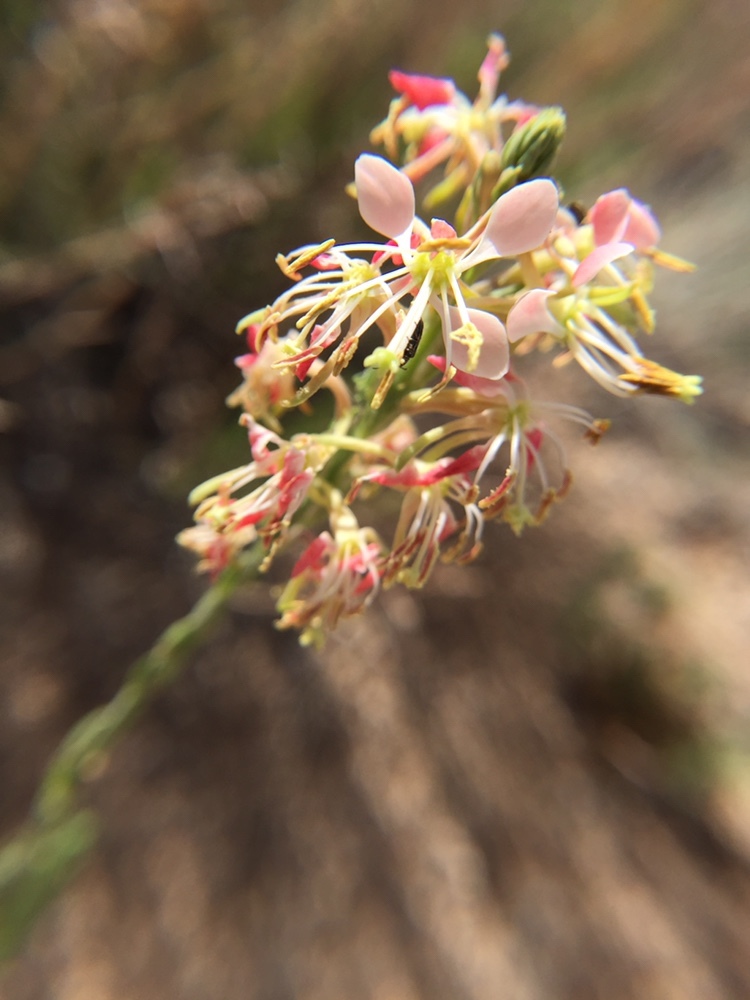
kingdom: Plantae
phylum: Tracheophyta
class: Magnoliopsida
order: Myrtales
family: Onagraceae
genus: Oenothera
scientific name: Oenothera suffrutescens
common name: Scarlet beeblossom
